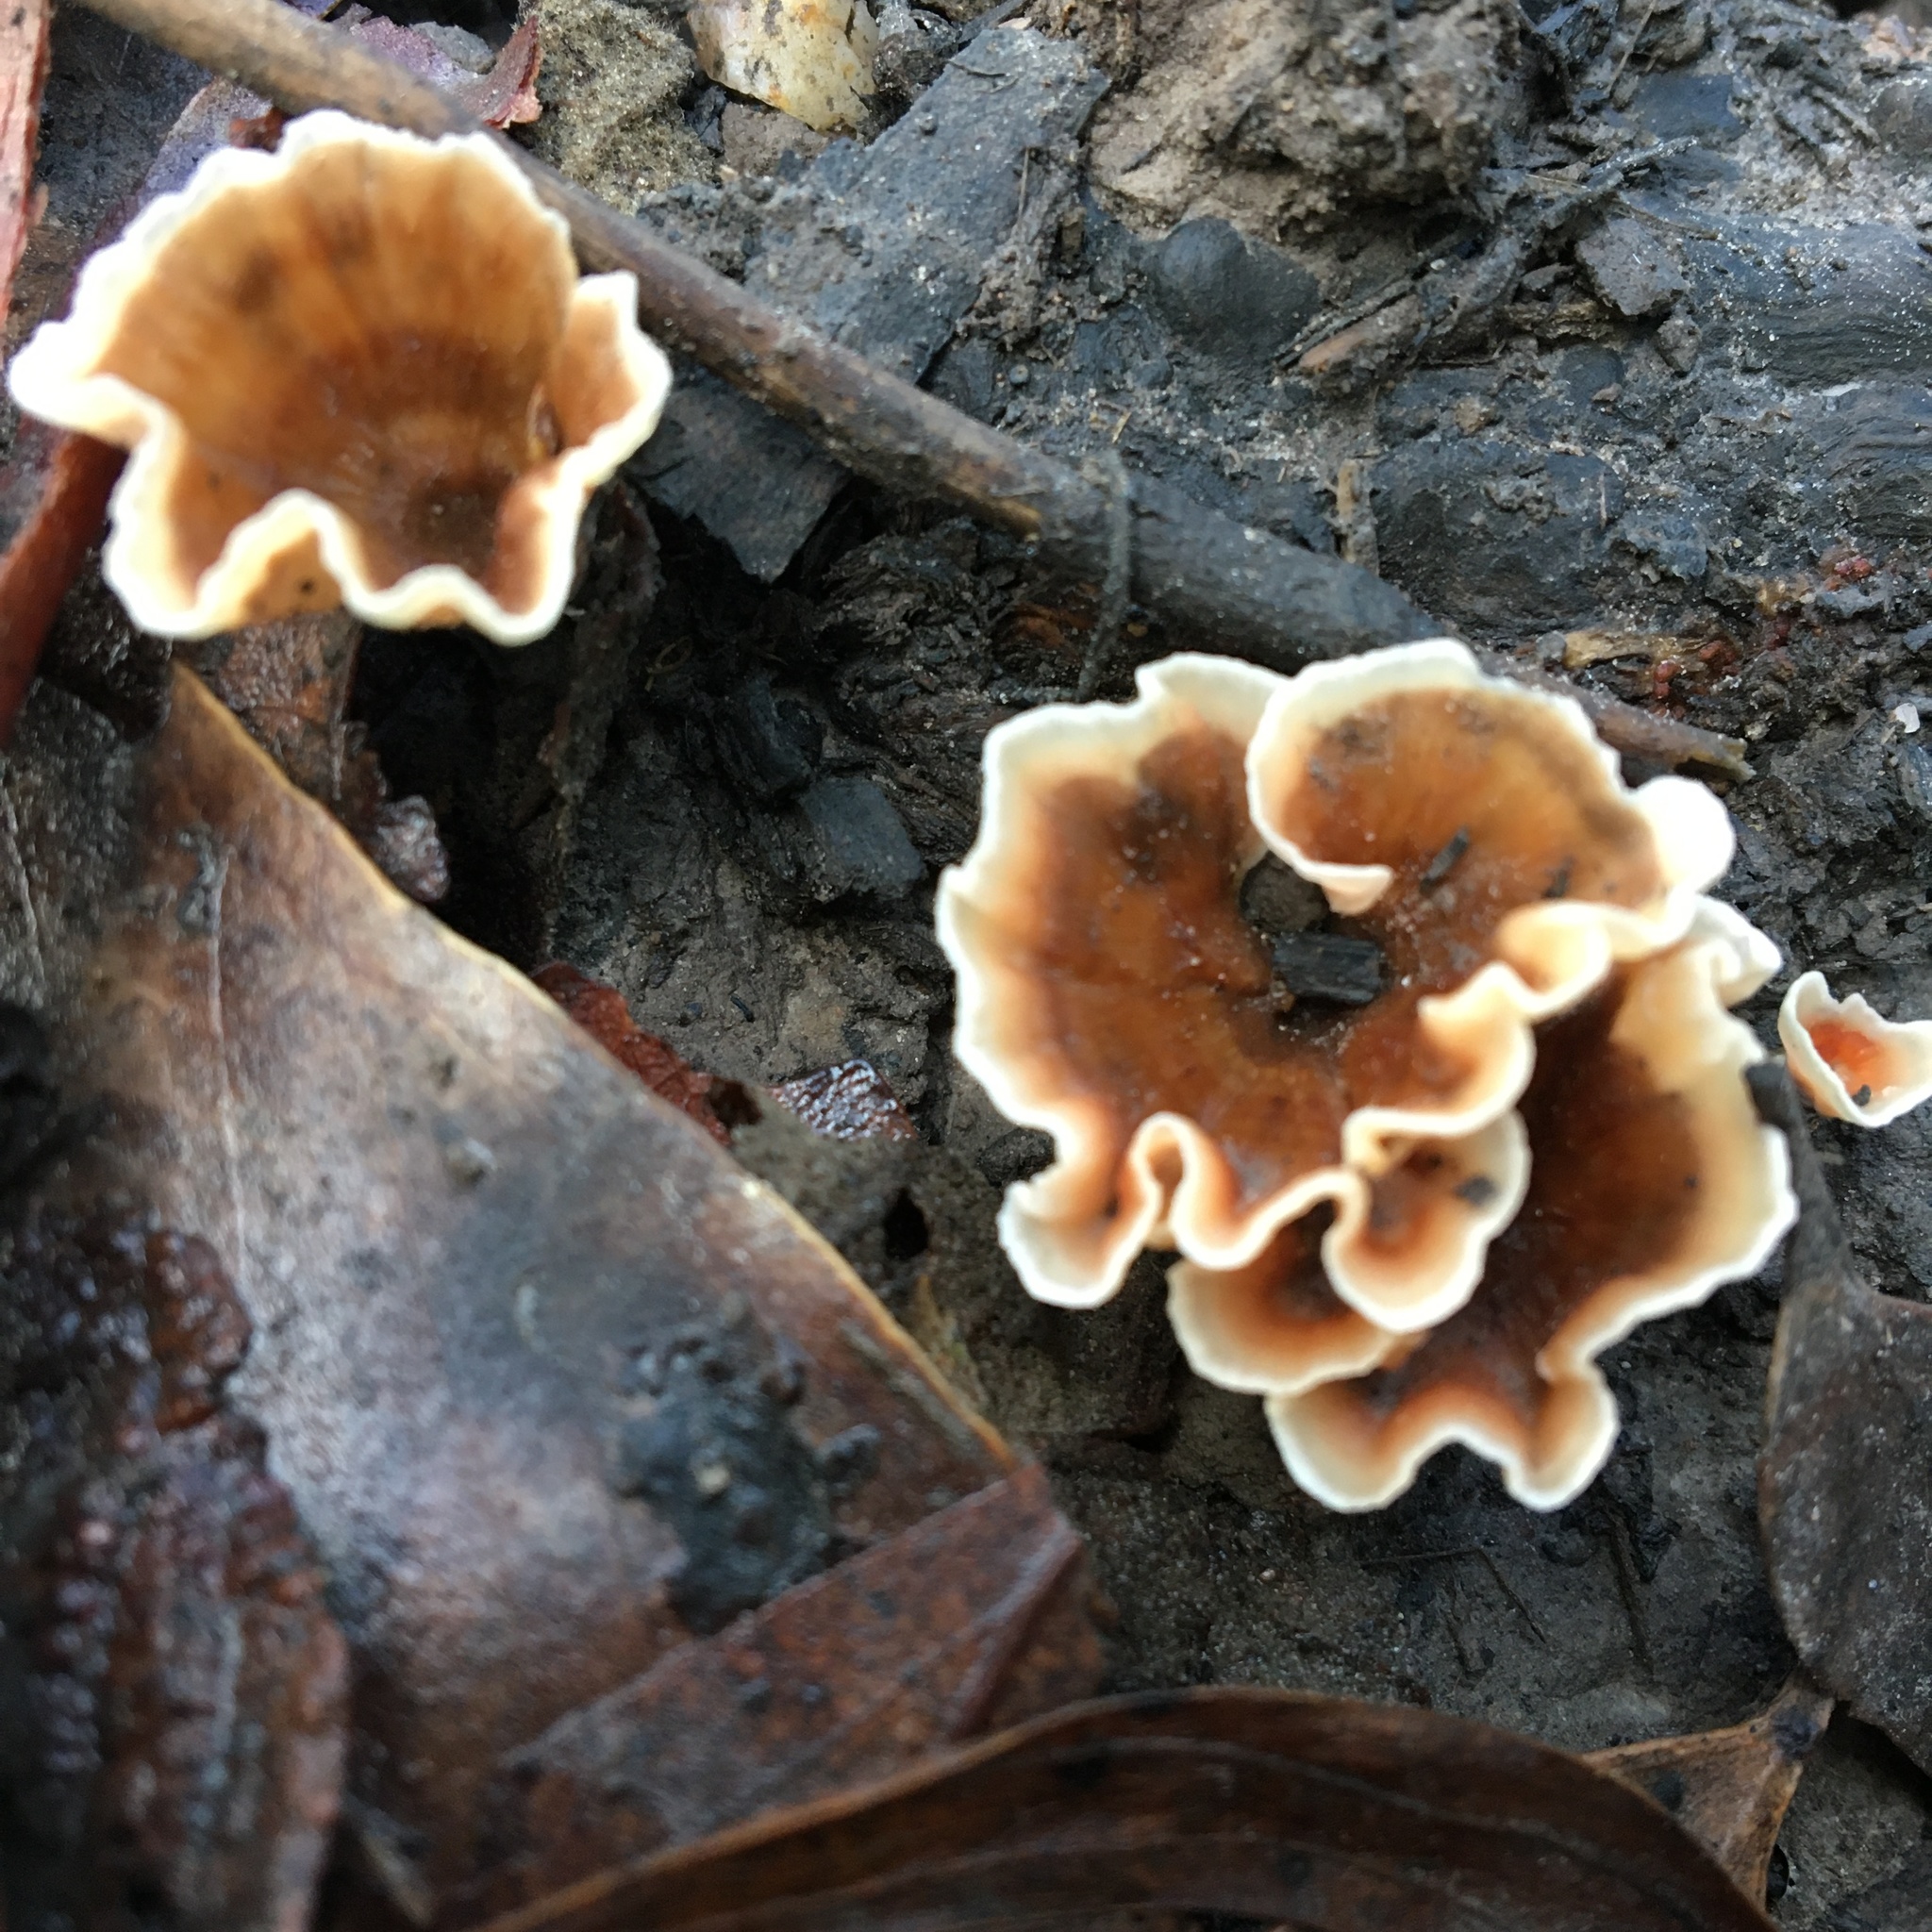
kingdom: Fungi
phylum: Basidiomycota
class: Agaricomycetes
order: Polyporales
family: Podoscyphaceae
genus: Podoscypha
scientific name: Podoscypha petalodes
